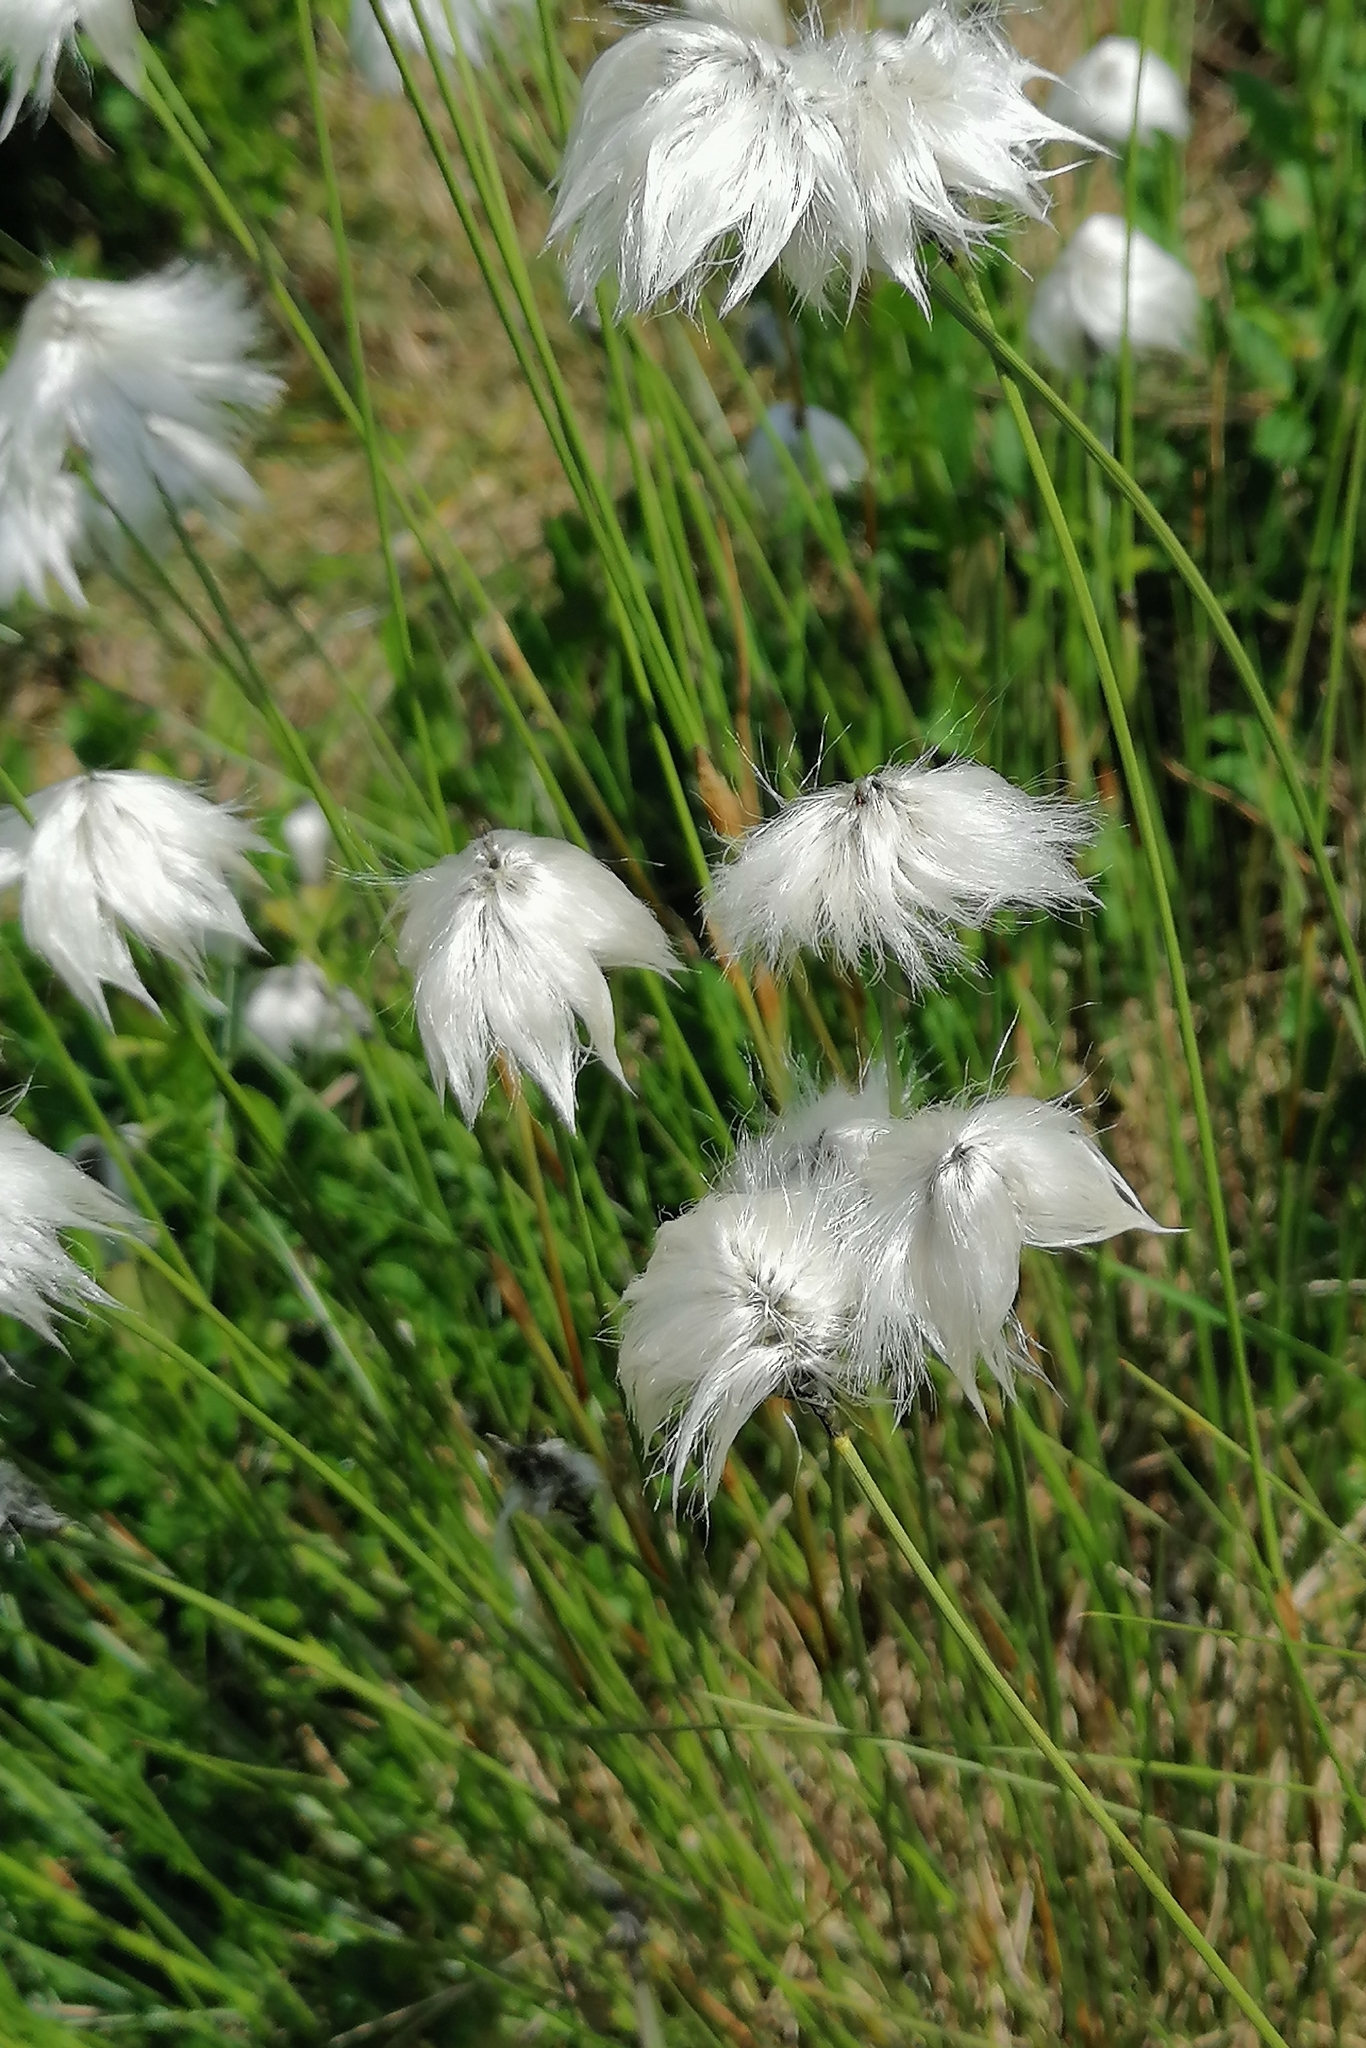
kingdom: Plantae
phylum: Tracheophyta
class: Liliopsida
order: Poales
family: Cyperaceae
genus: Eriophorum
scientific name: Eriophorum vaginatum
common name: Hare's-tail cottongrass
